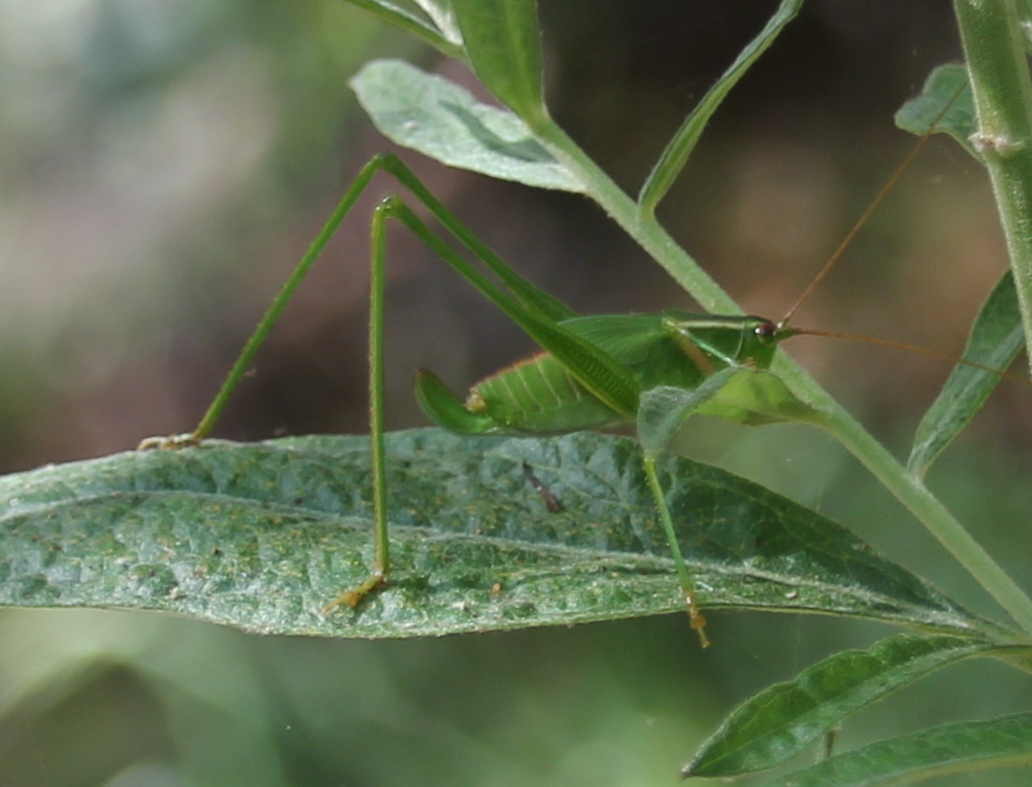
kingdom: Animalia
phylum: Arthropoda
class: Insecta
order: Orthoptera
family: Tettigoniidae
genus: Scudderia
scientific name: Scudderia
